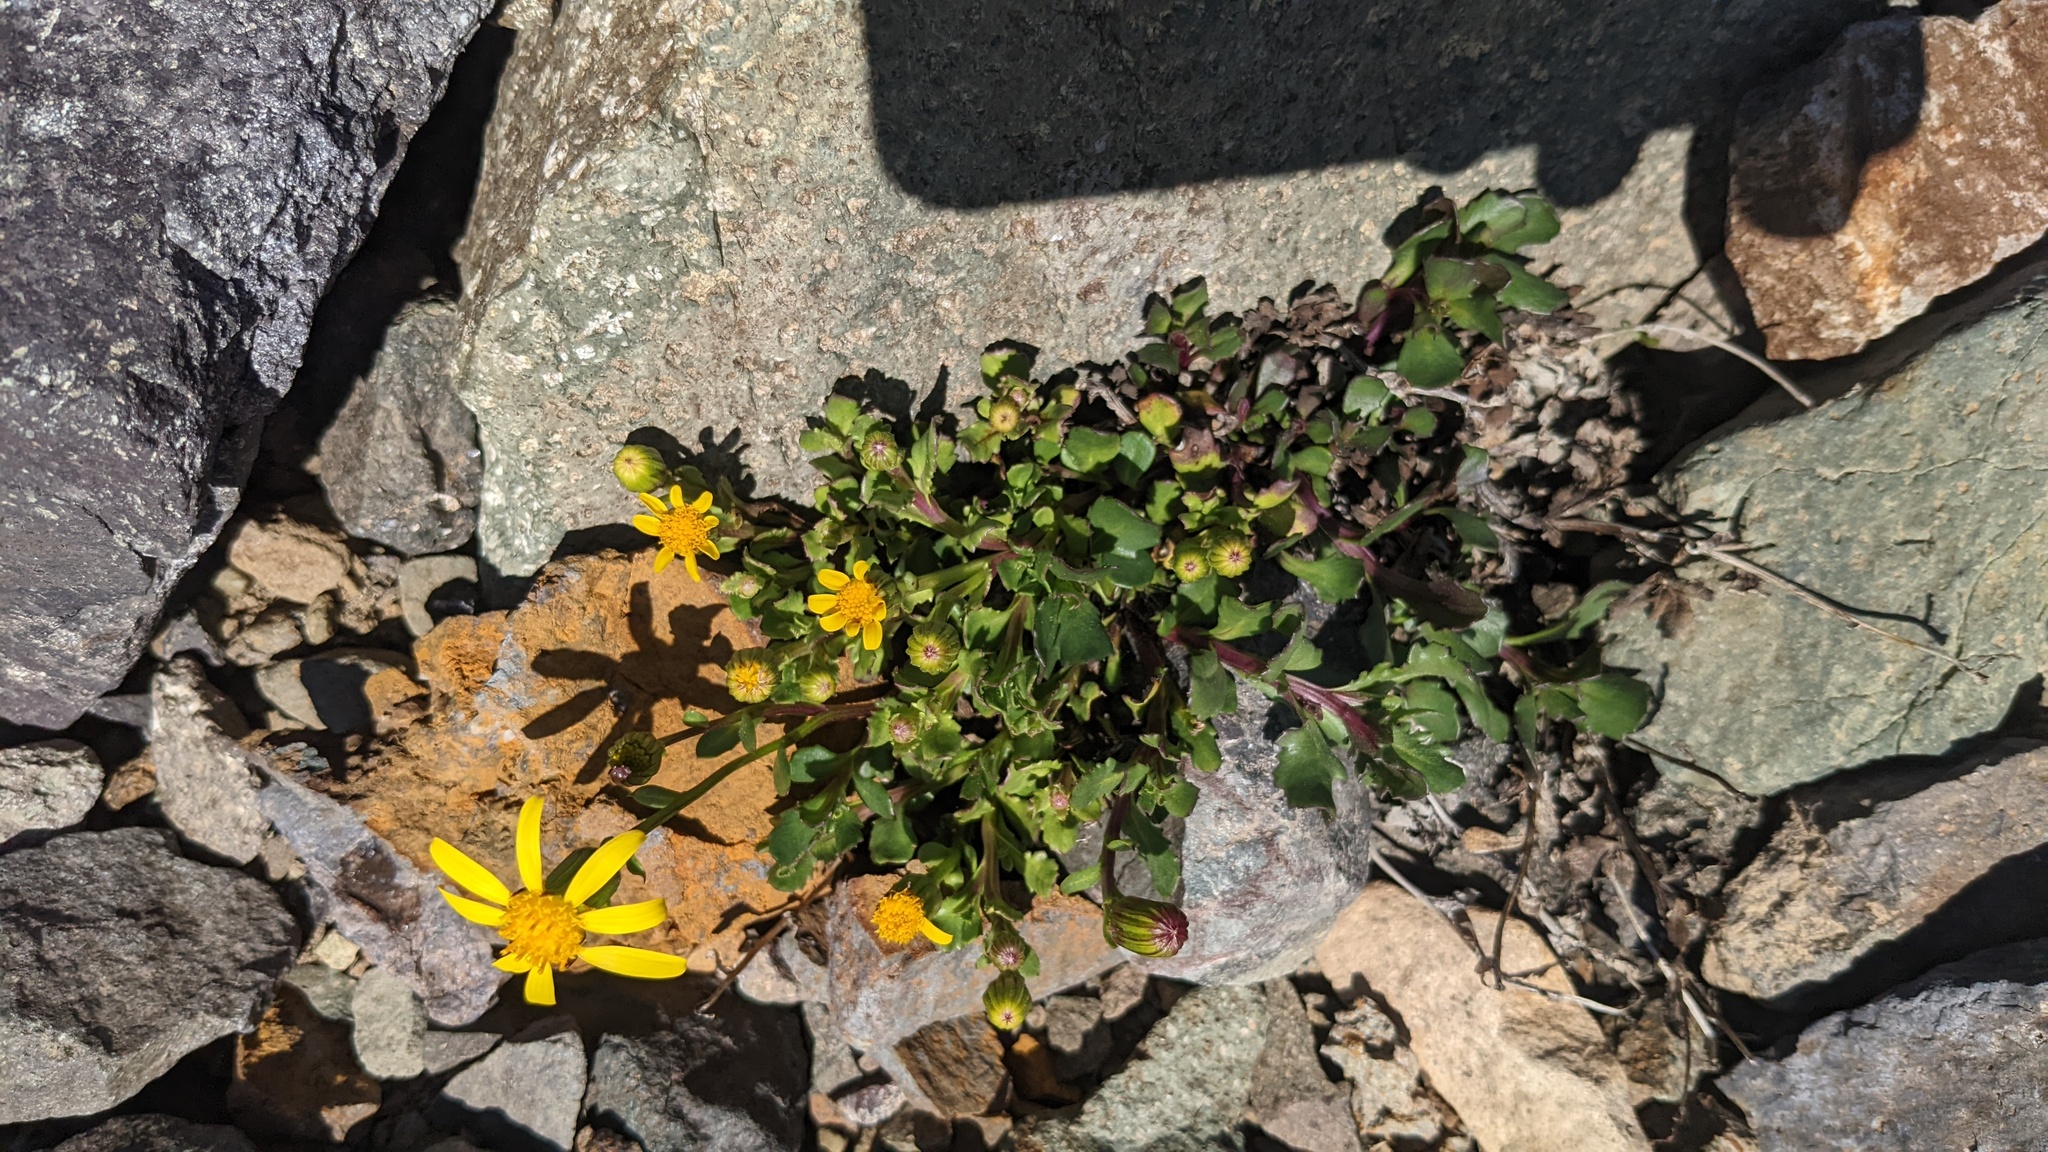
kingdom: Plantae
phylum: Tracheophyta
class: Magnoliopsida
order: Asterales
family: Asteraceae
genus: Senecio
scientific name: Senecio fremontii
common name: Fremont's groundsel
